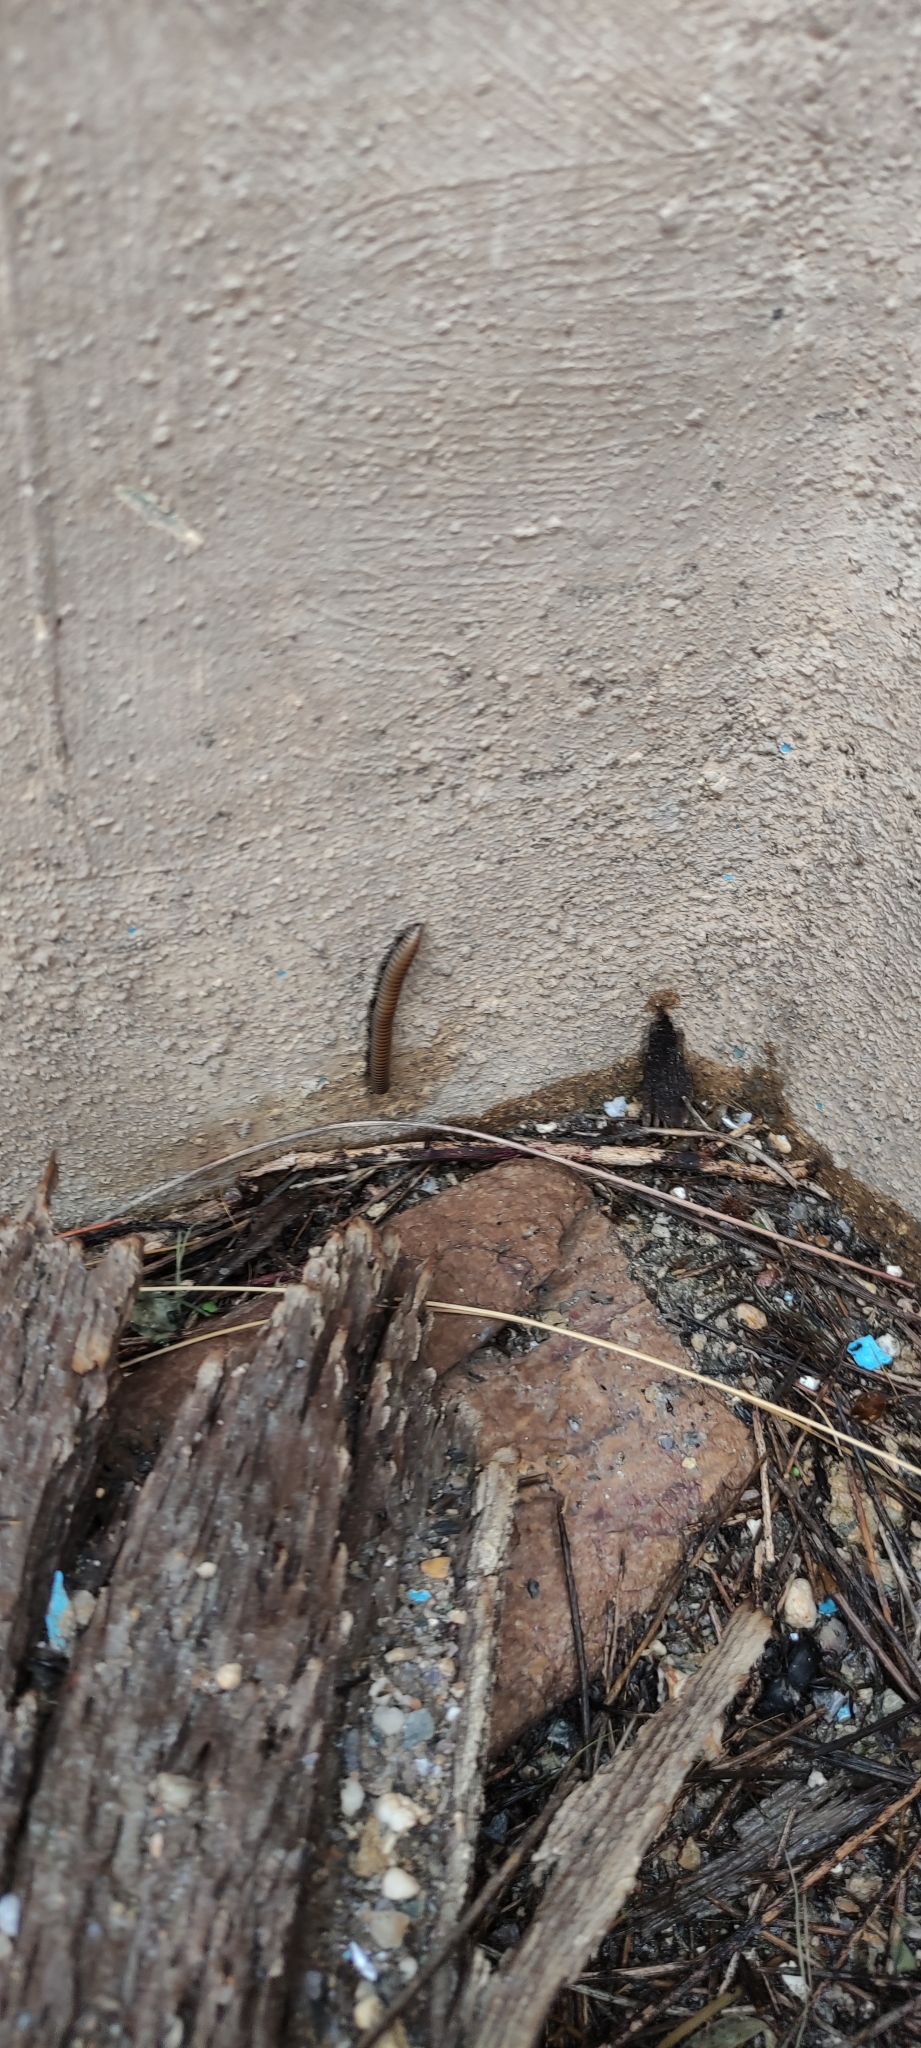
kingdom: Animalia
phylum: Arthropoda
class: Diplopoda
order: Julida
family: Julidae
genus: Ommatoiulus
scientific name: Ommatoiulus rutilans
